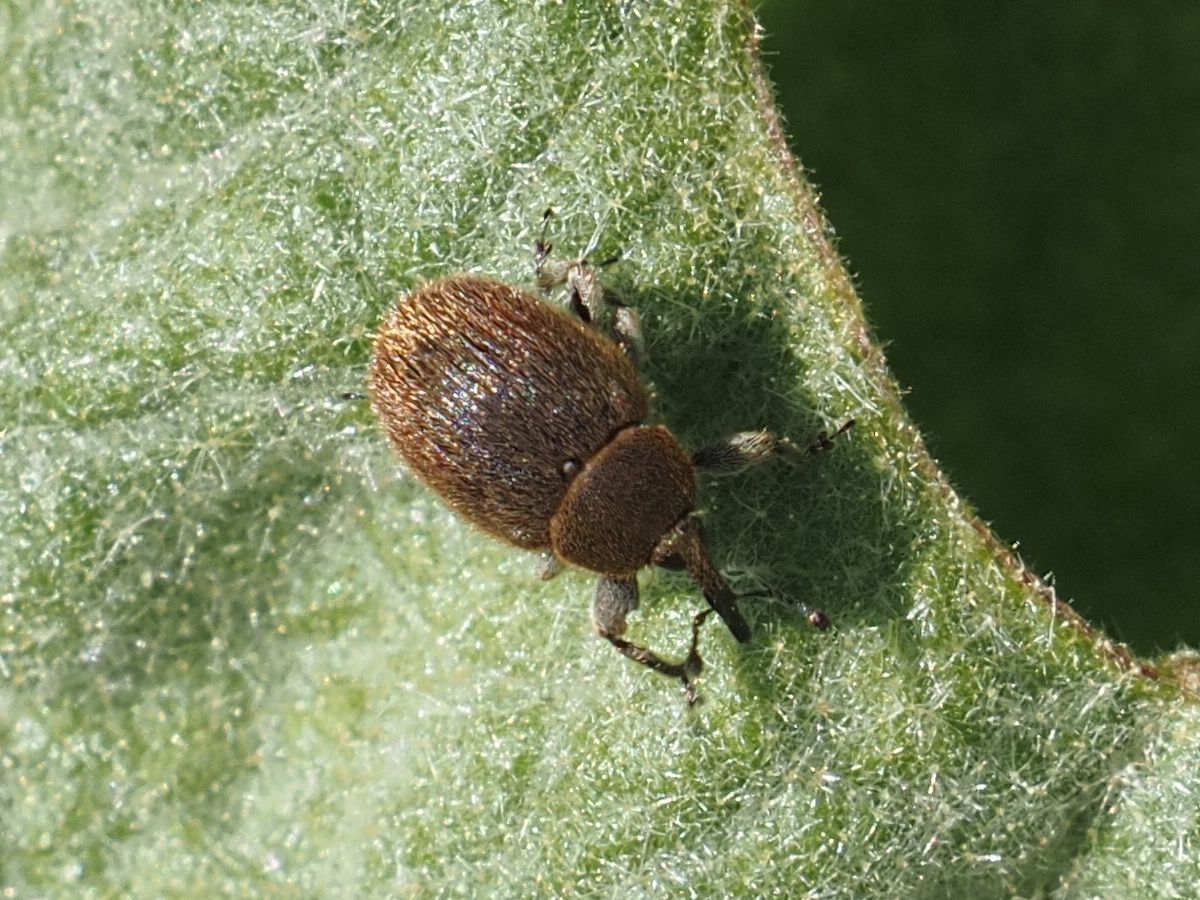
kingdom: Animalia
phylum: Arthropoda
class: Insecta
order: Coleoptera
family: Curculionidae
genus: Rhinusa
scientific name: Rhinusa tetra
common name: Weevil
